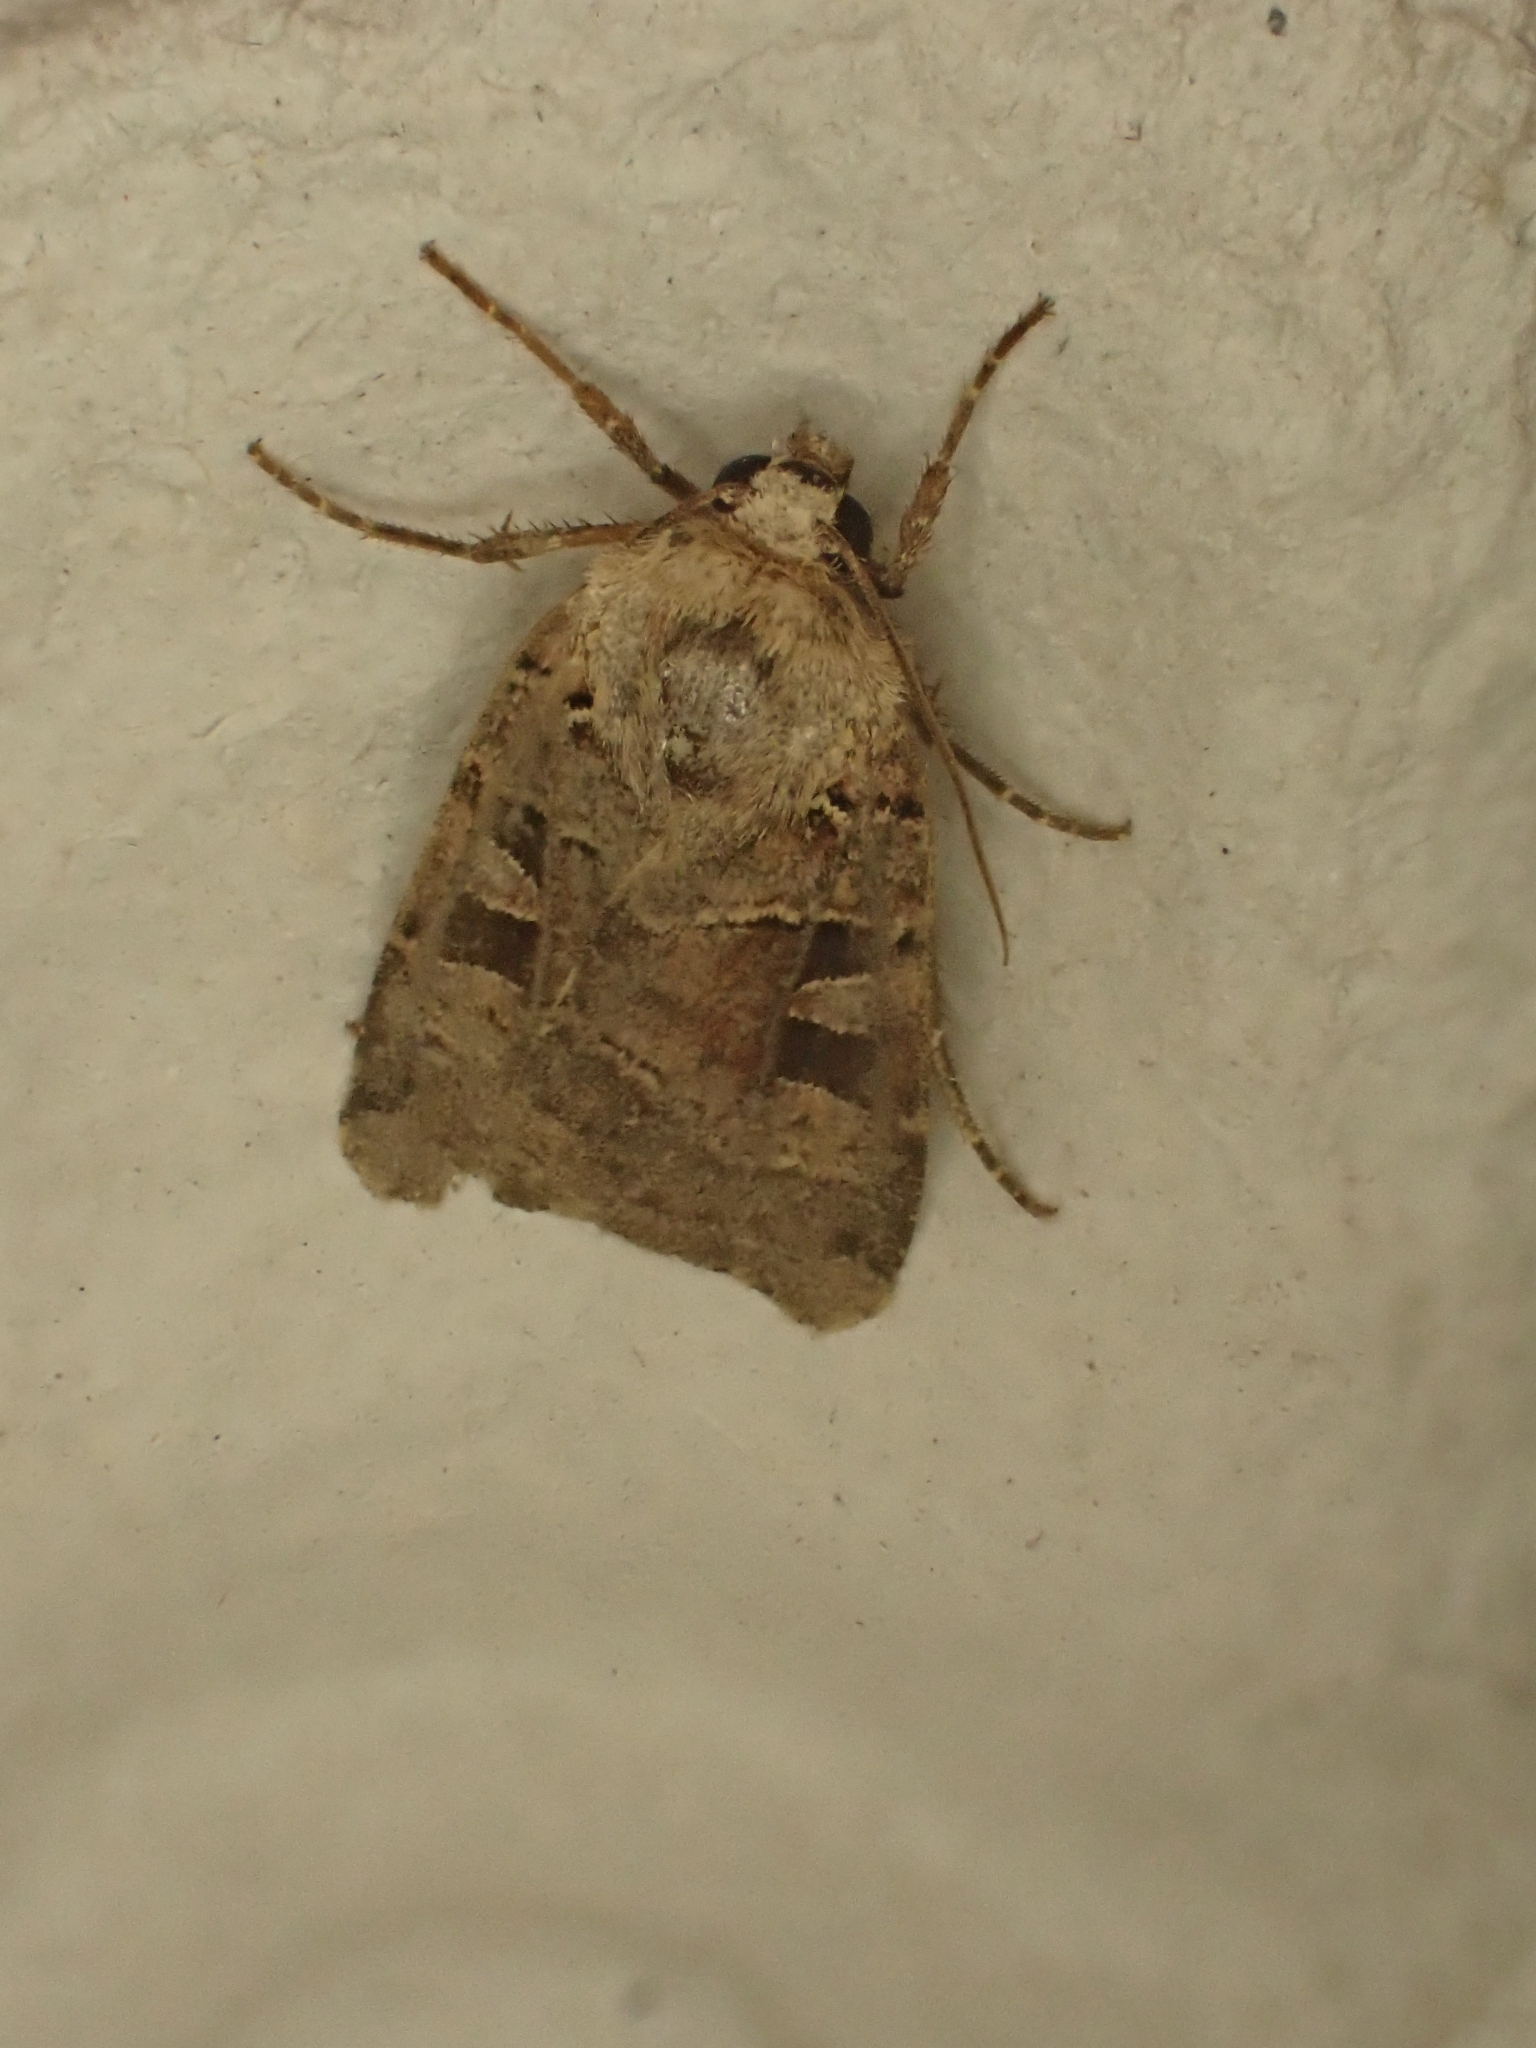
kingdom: Animalia
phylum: Arthropoda
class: Insecta
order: Lepidoptera
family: Noctuidae
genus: Xestia
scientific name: Xestia triangulum
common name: Double square-spot
